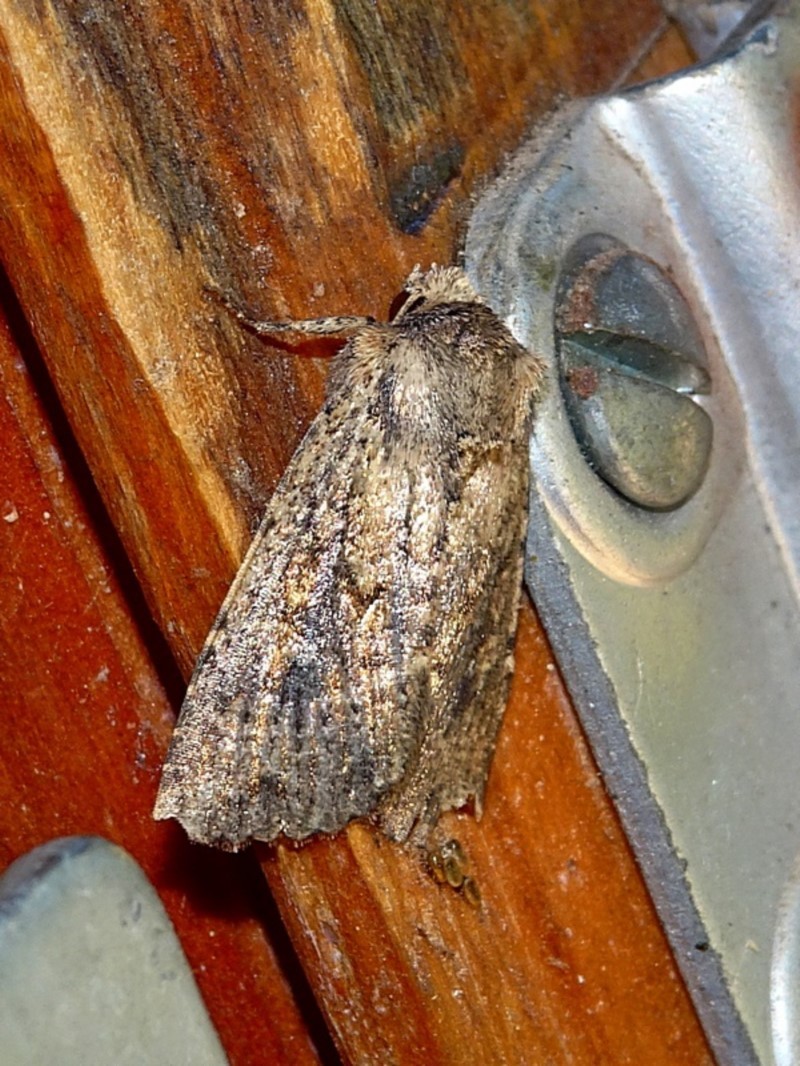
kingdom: Animalia
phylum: Arthropoda
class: Insecta
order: Lepidoptera
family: Noctuidae
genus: Dasygaster
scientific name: Dasygaster padockina
